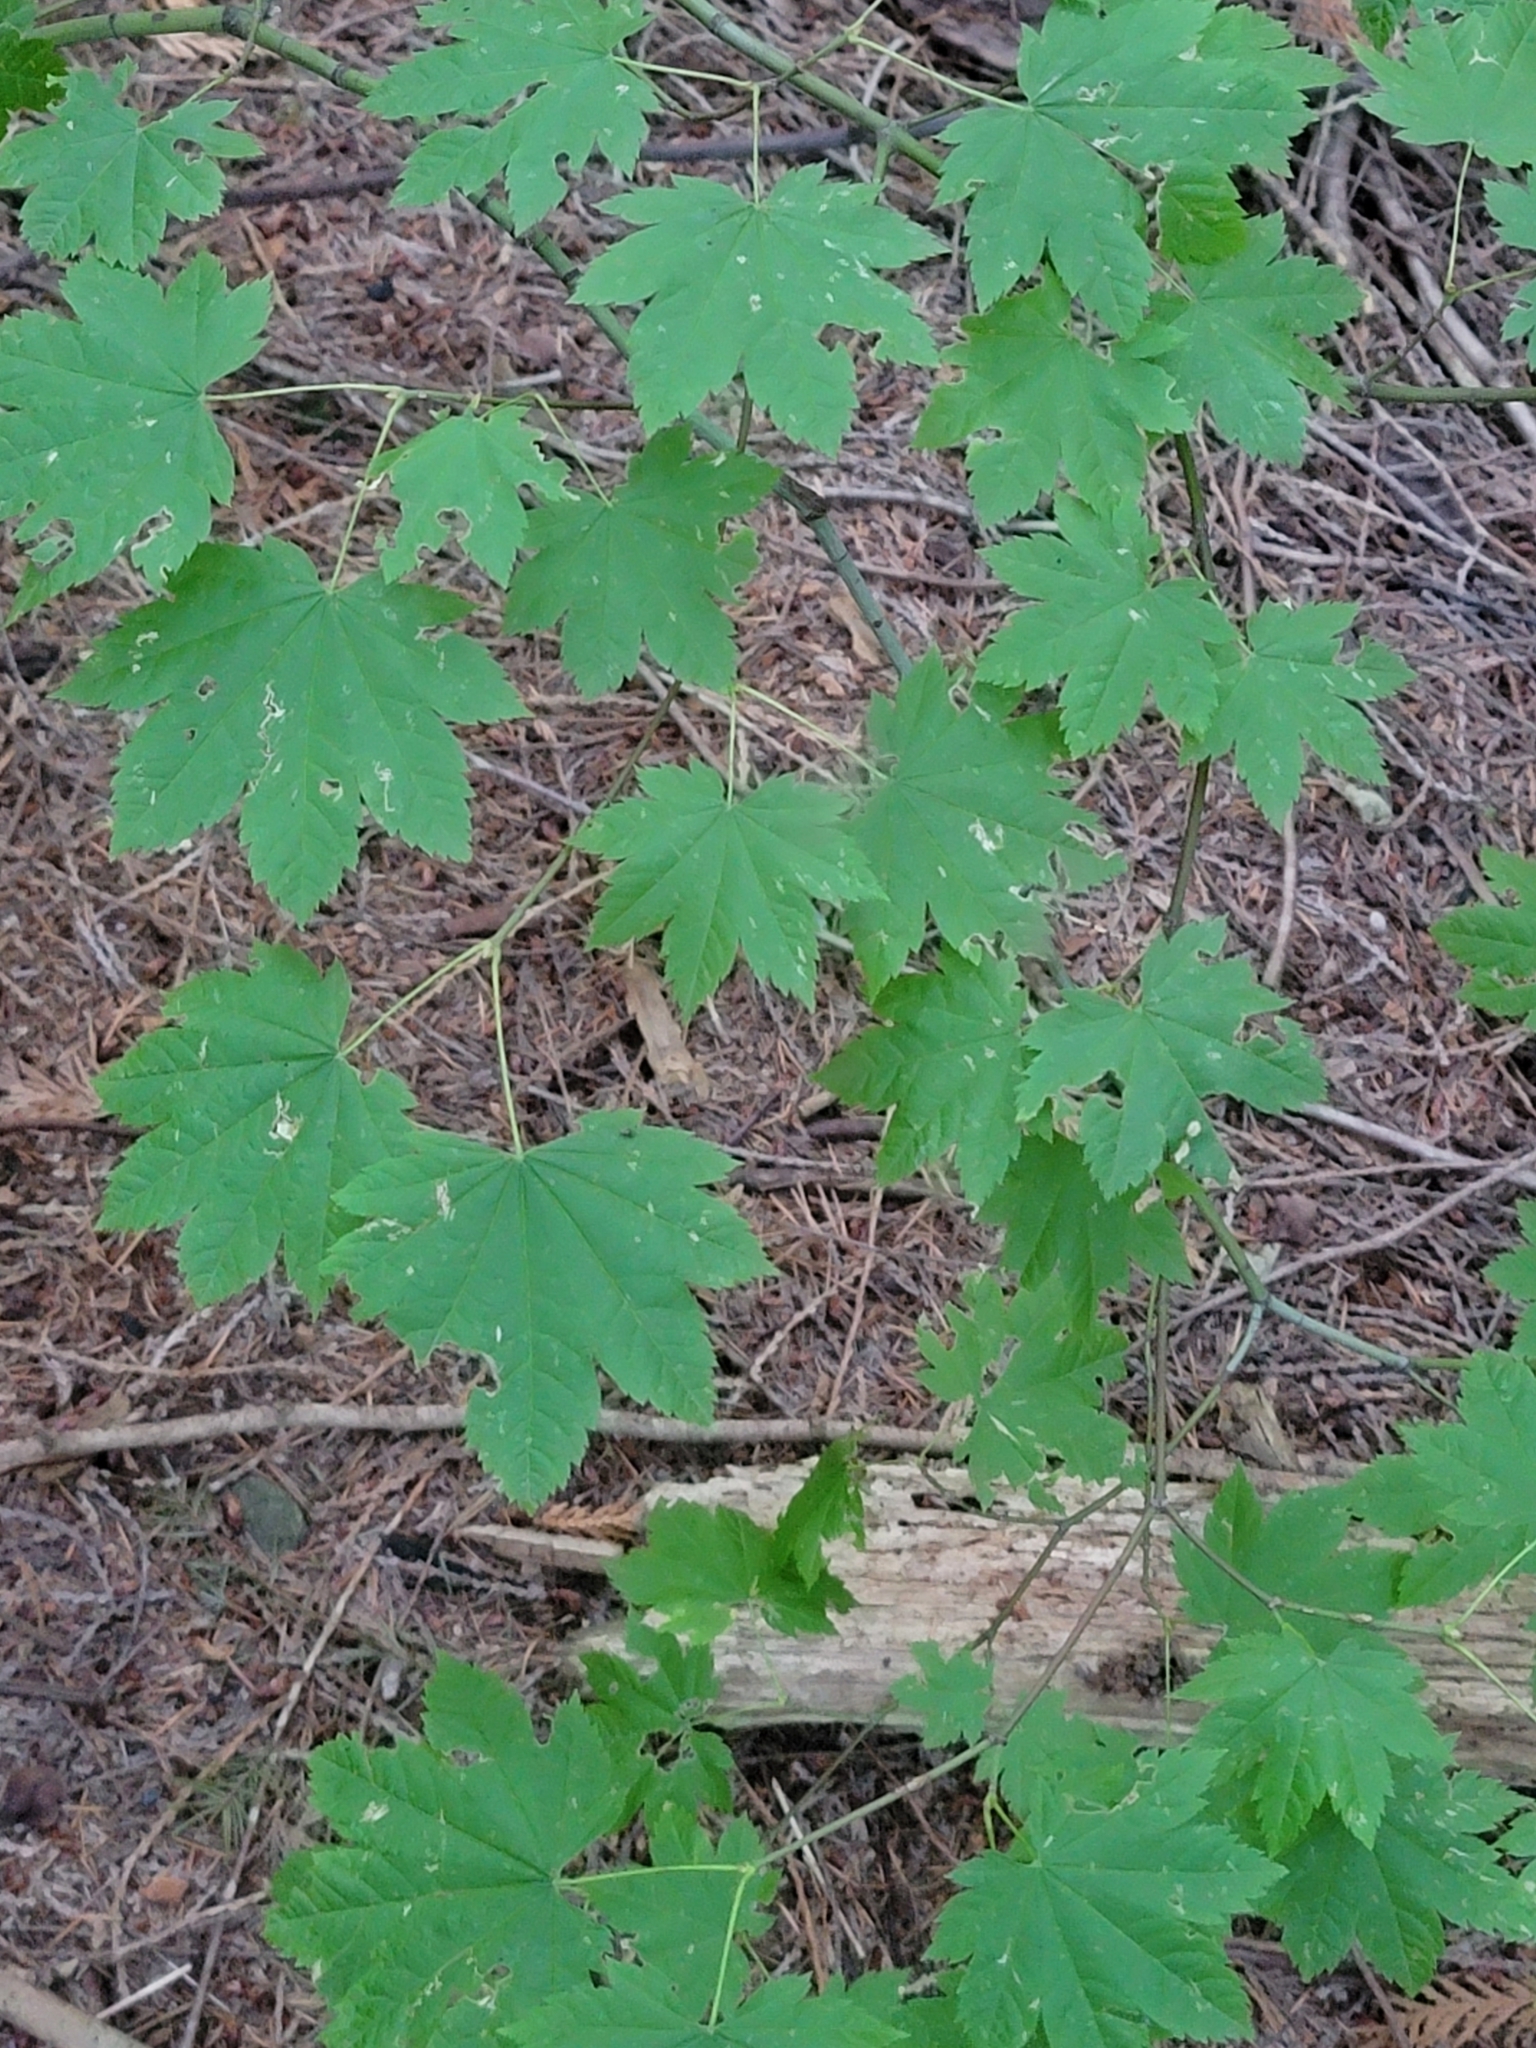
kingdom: Plantae
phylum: Tracheophyta
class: Magnoliopsida
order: Sapindales
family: Sapindaceae
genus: Acer
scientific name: Acer circinatum
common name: Vine maple
